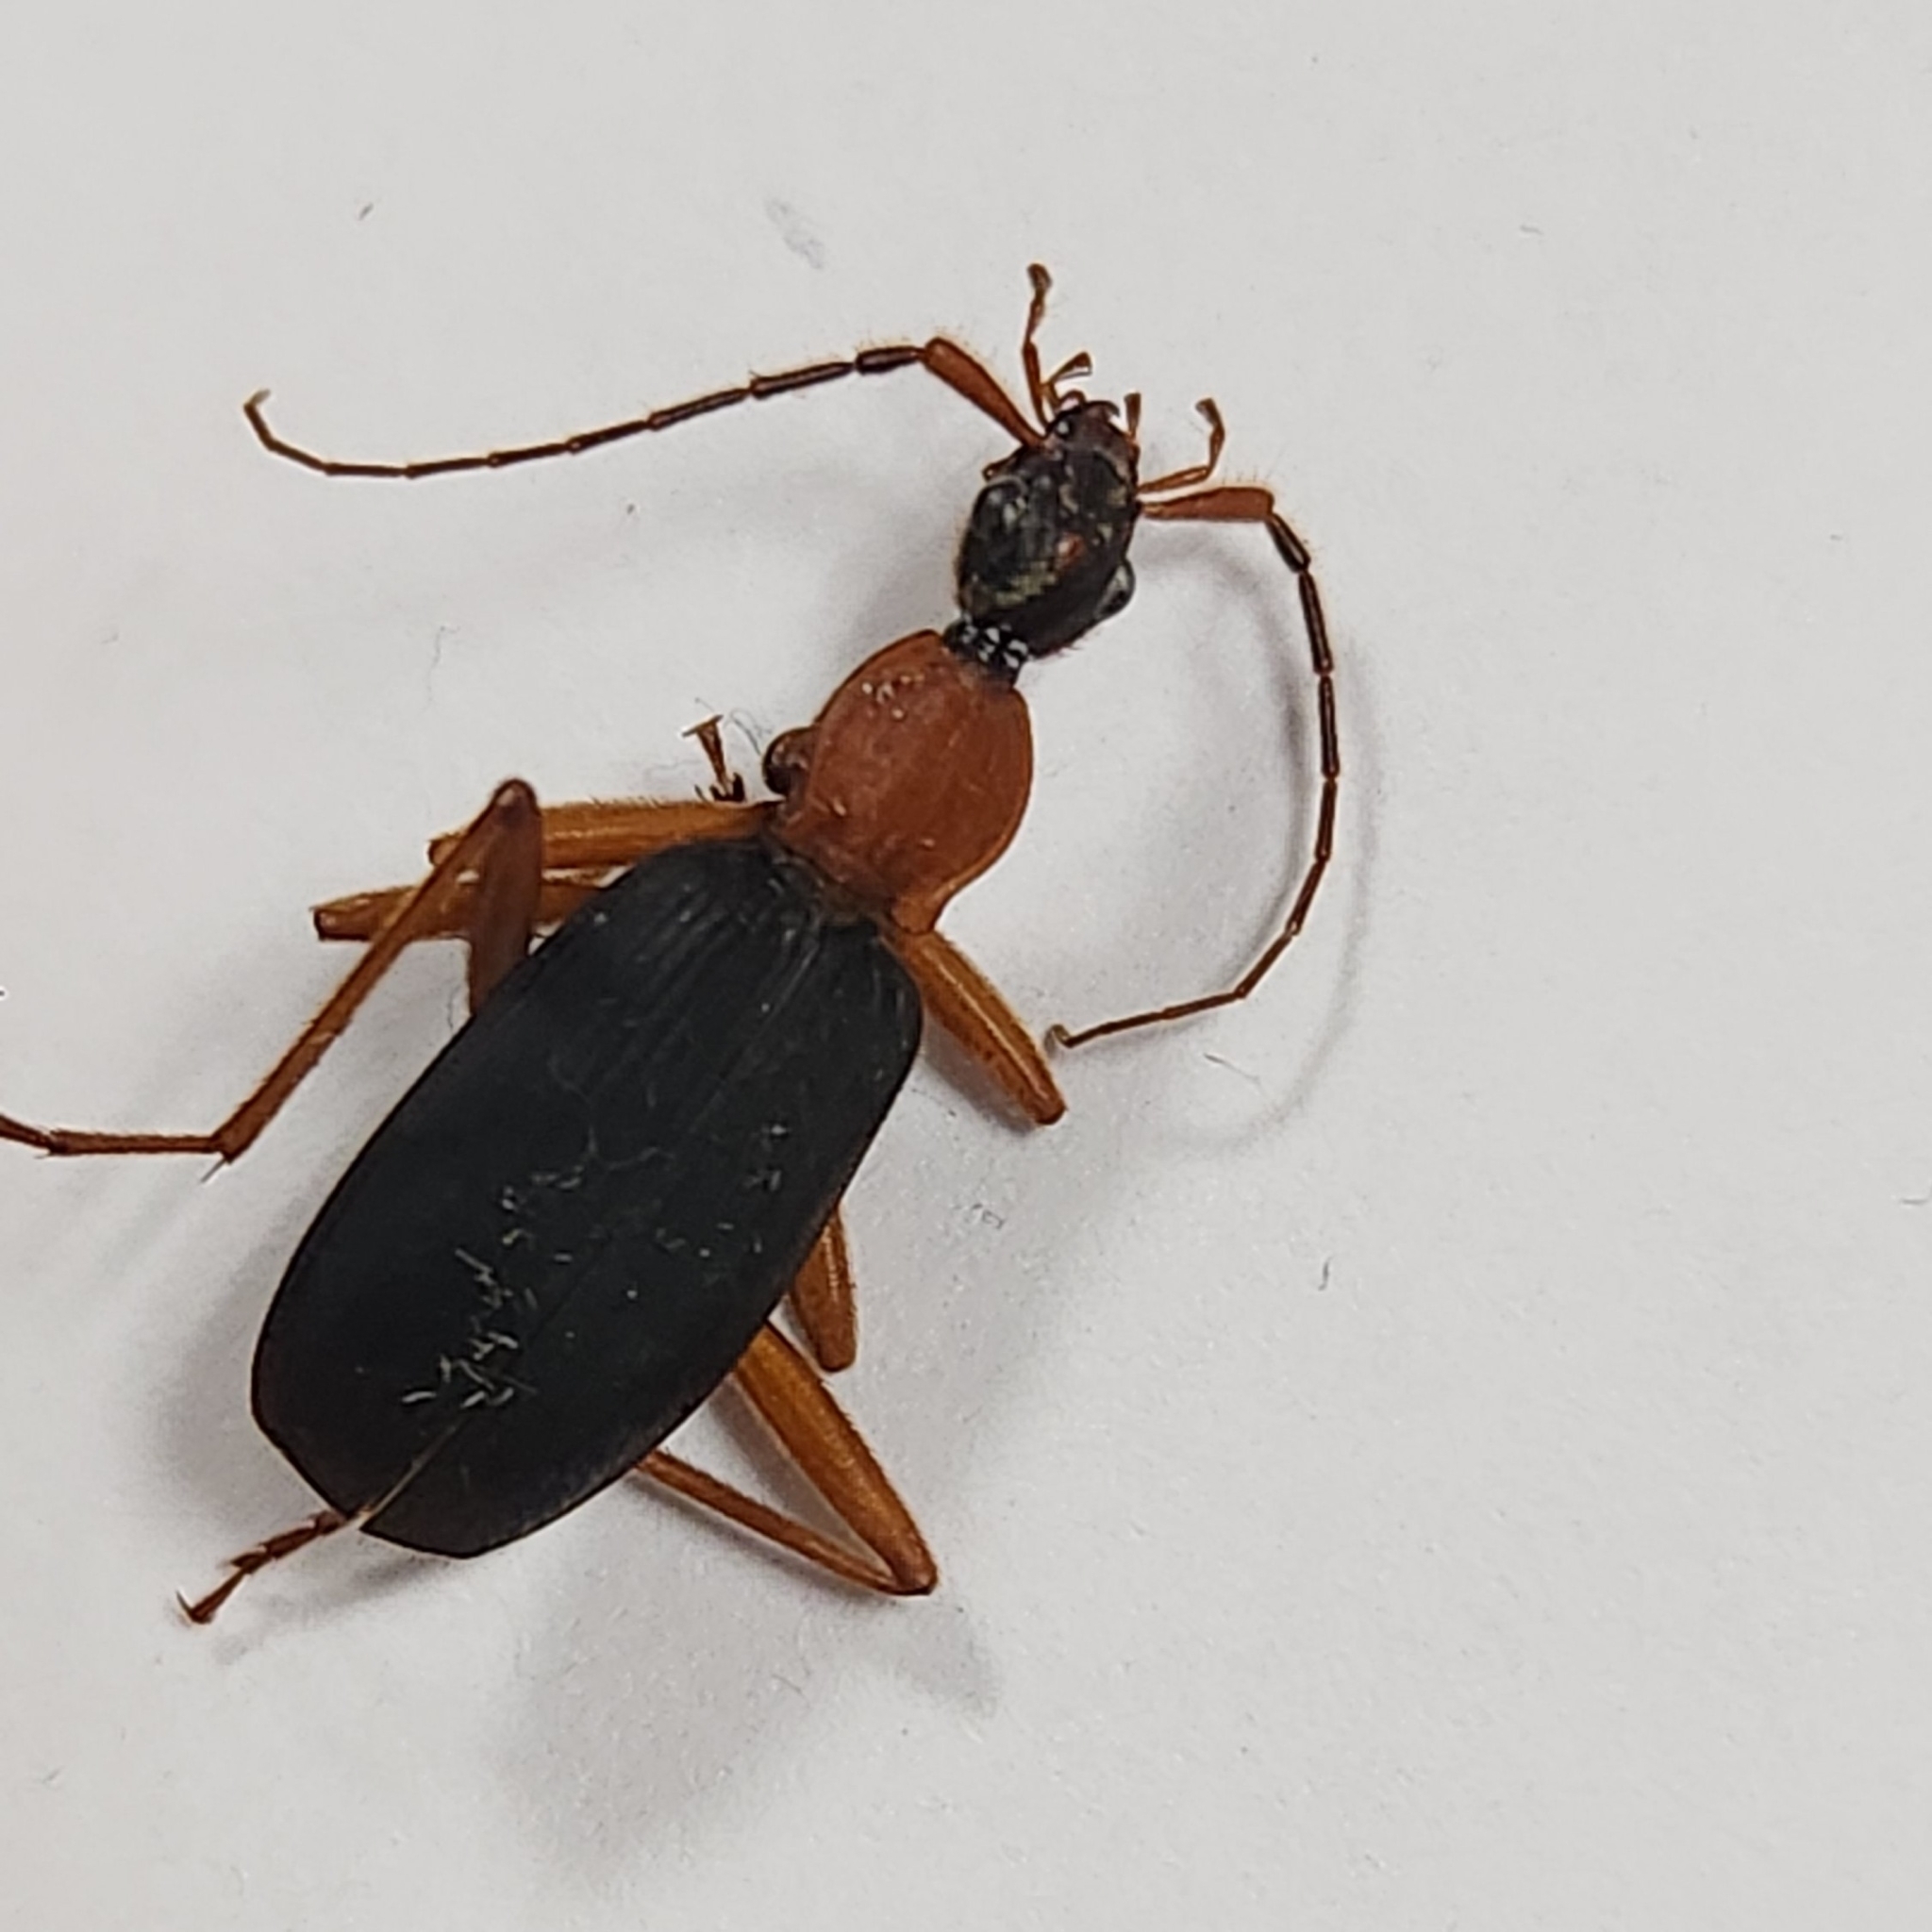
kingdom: Animalia
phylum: Arthropoda
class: Insecta
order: Coleoptera
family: Carabidae
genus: Galerita
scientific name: Galerita bicolor
